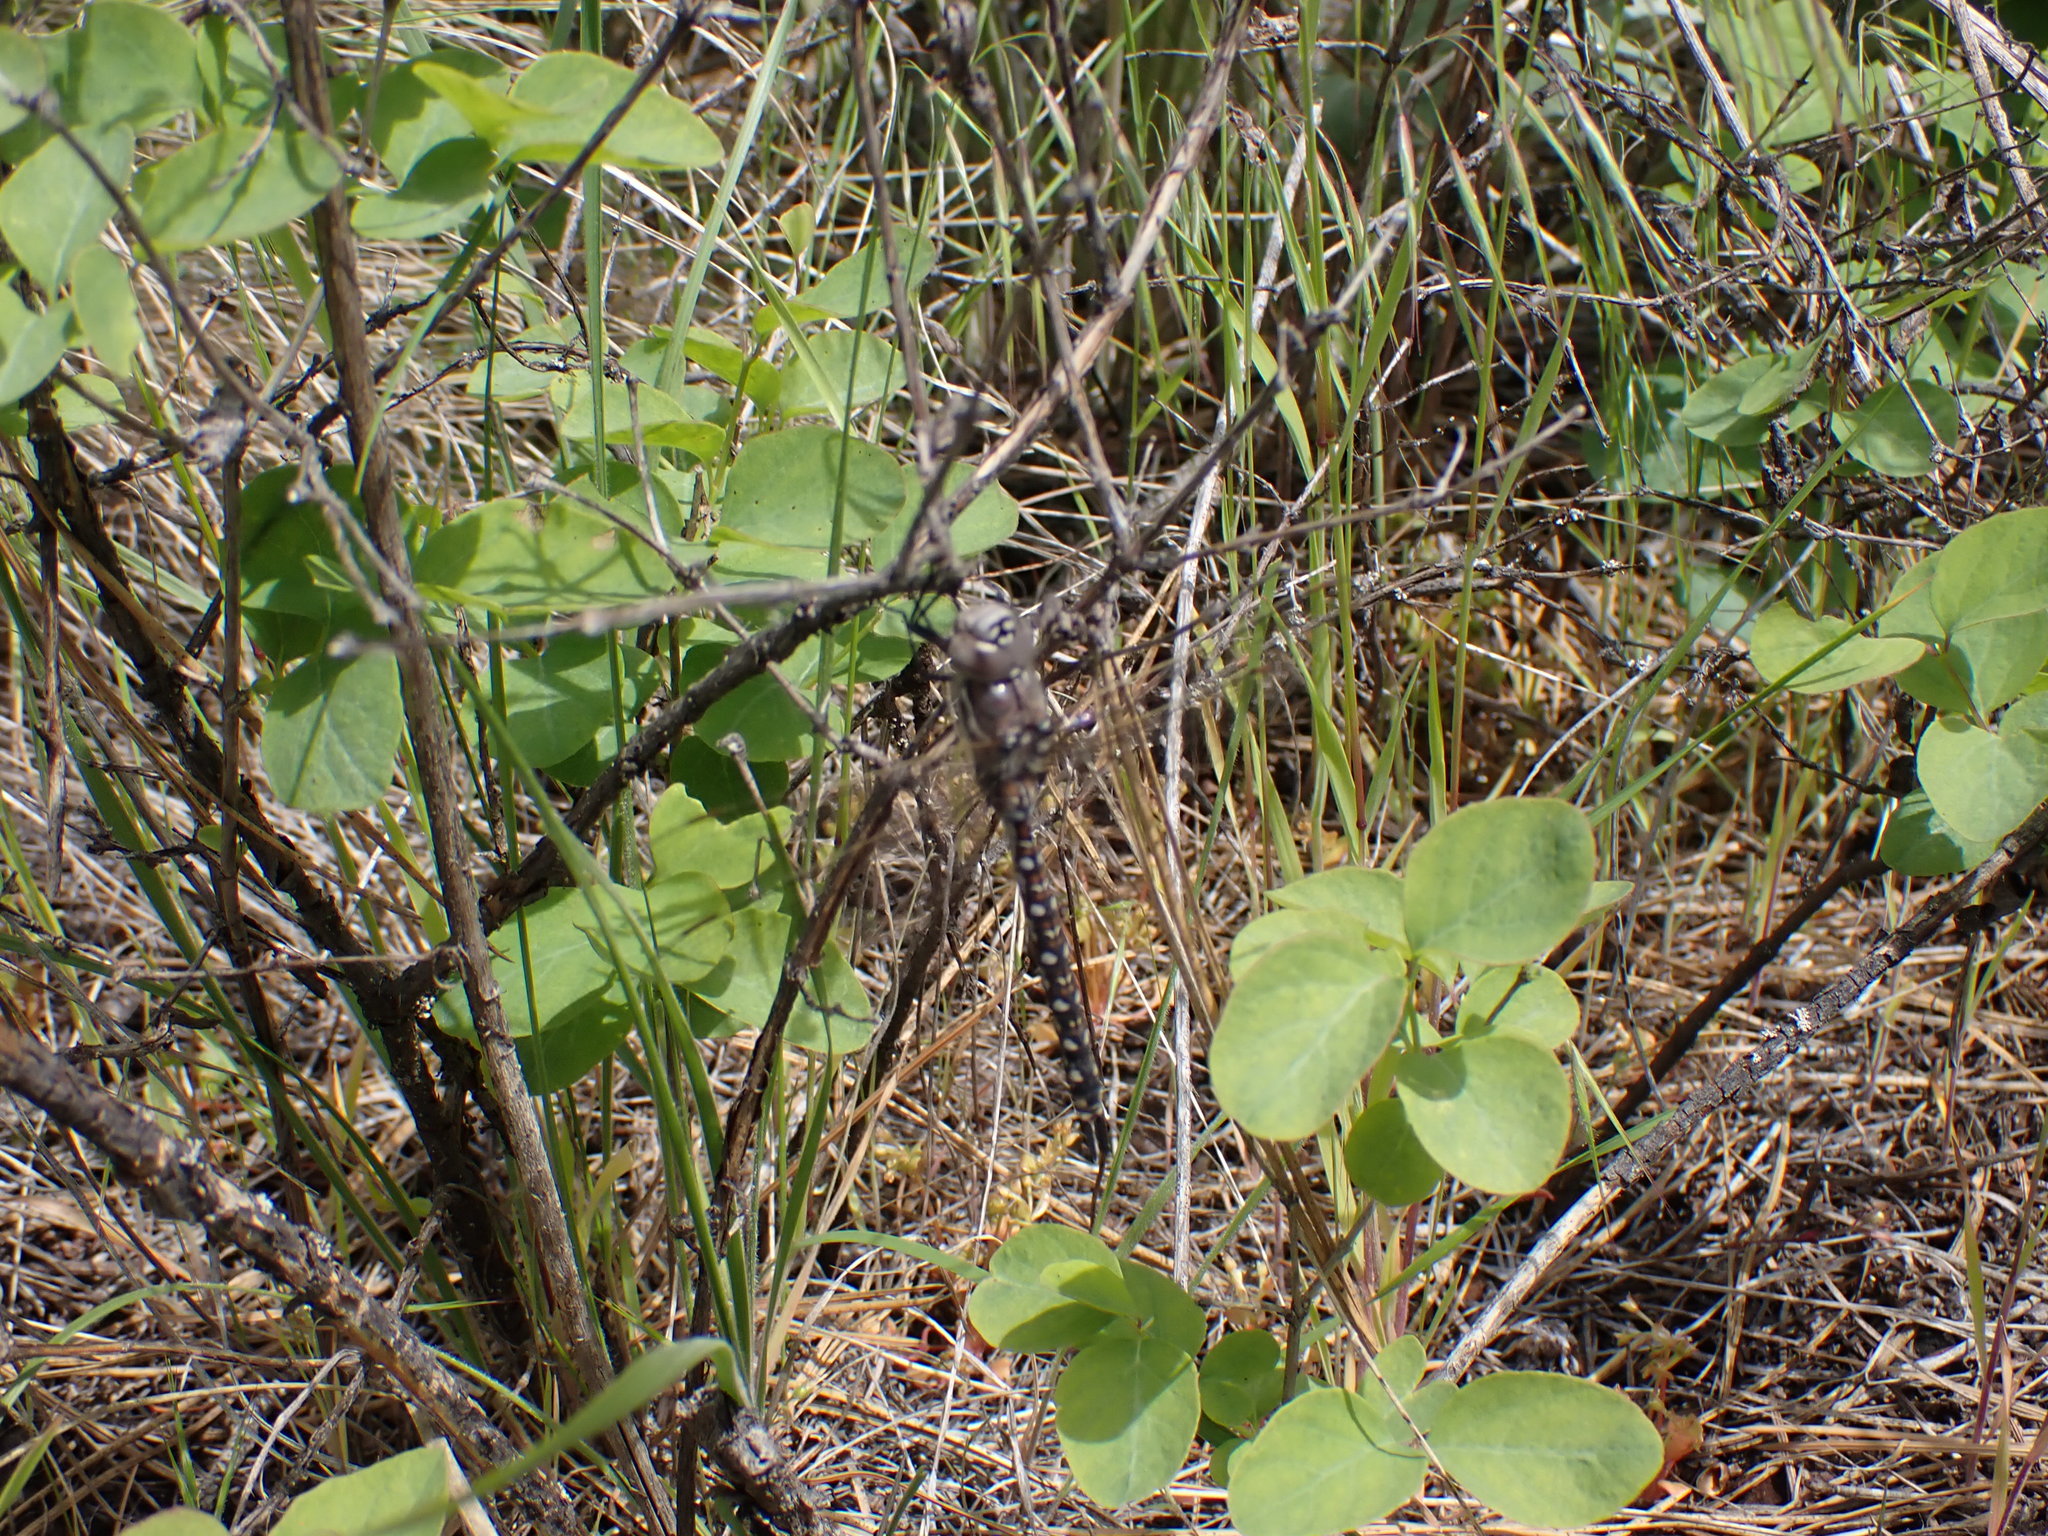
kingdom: Animalia
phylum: Arthropoda
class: Insecta
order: Odonata
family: Aeshnidae
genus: Rhionaeschna
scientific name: Rhionaeschna californica
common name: California darner
